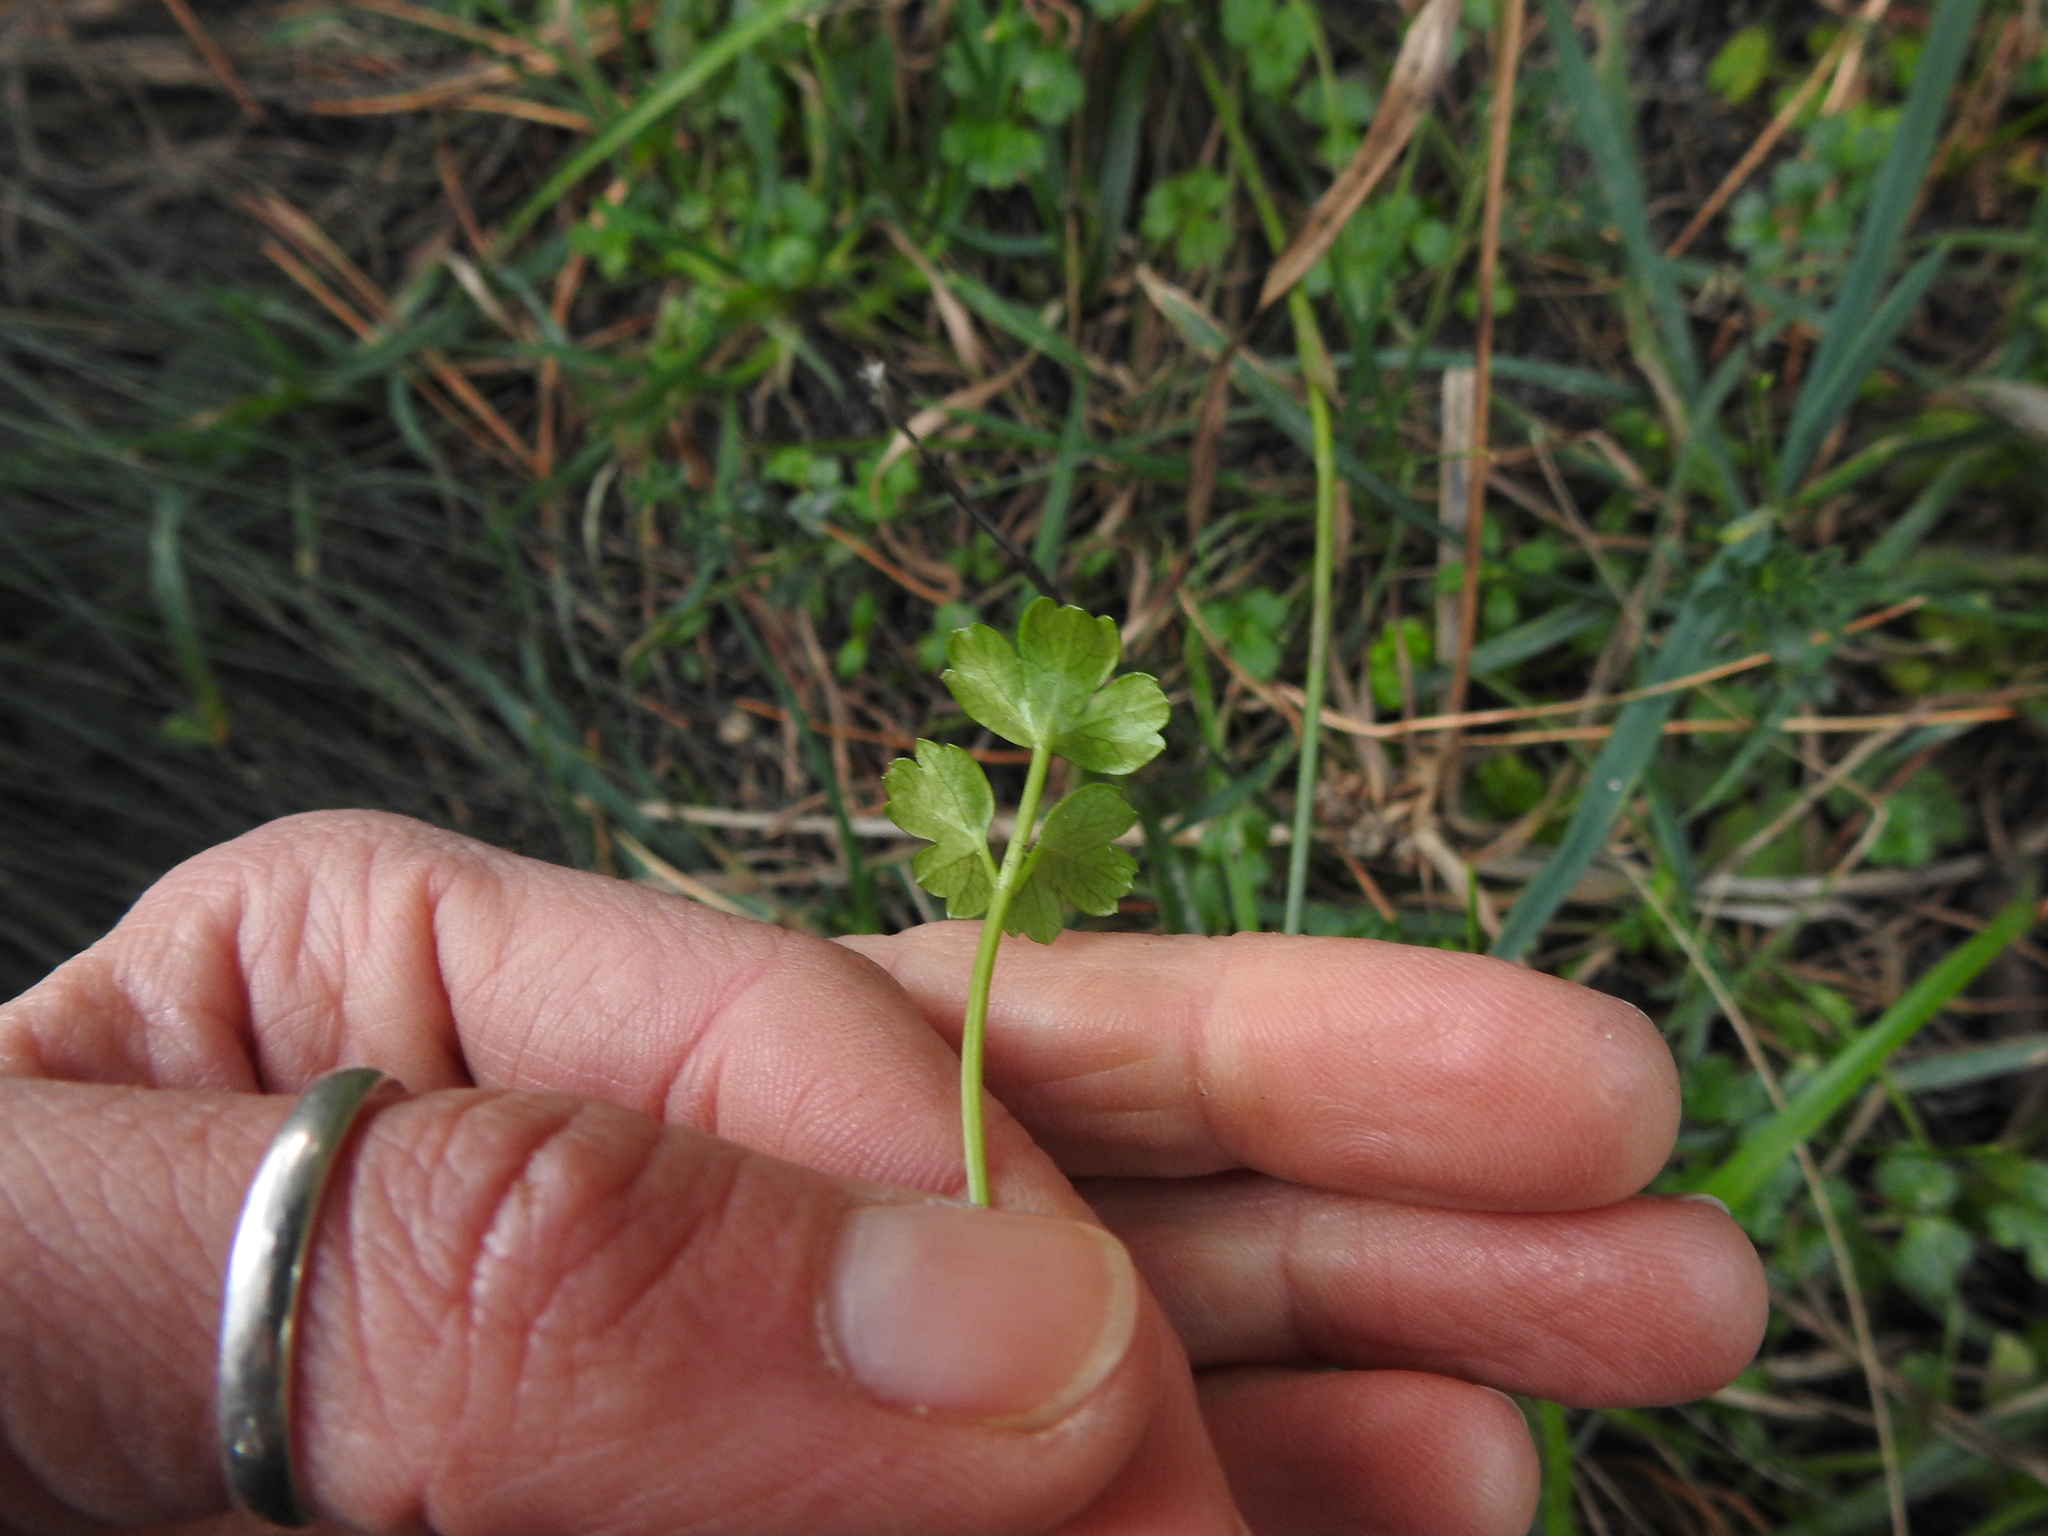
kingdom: Plantae
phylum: Tracheophyta
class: Magnoliopsida
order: Apiales
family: Apiaceae
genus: Apium
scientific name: Apium prostratum
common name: Prostrate marshwort
